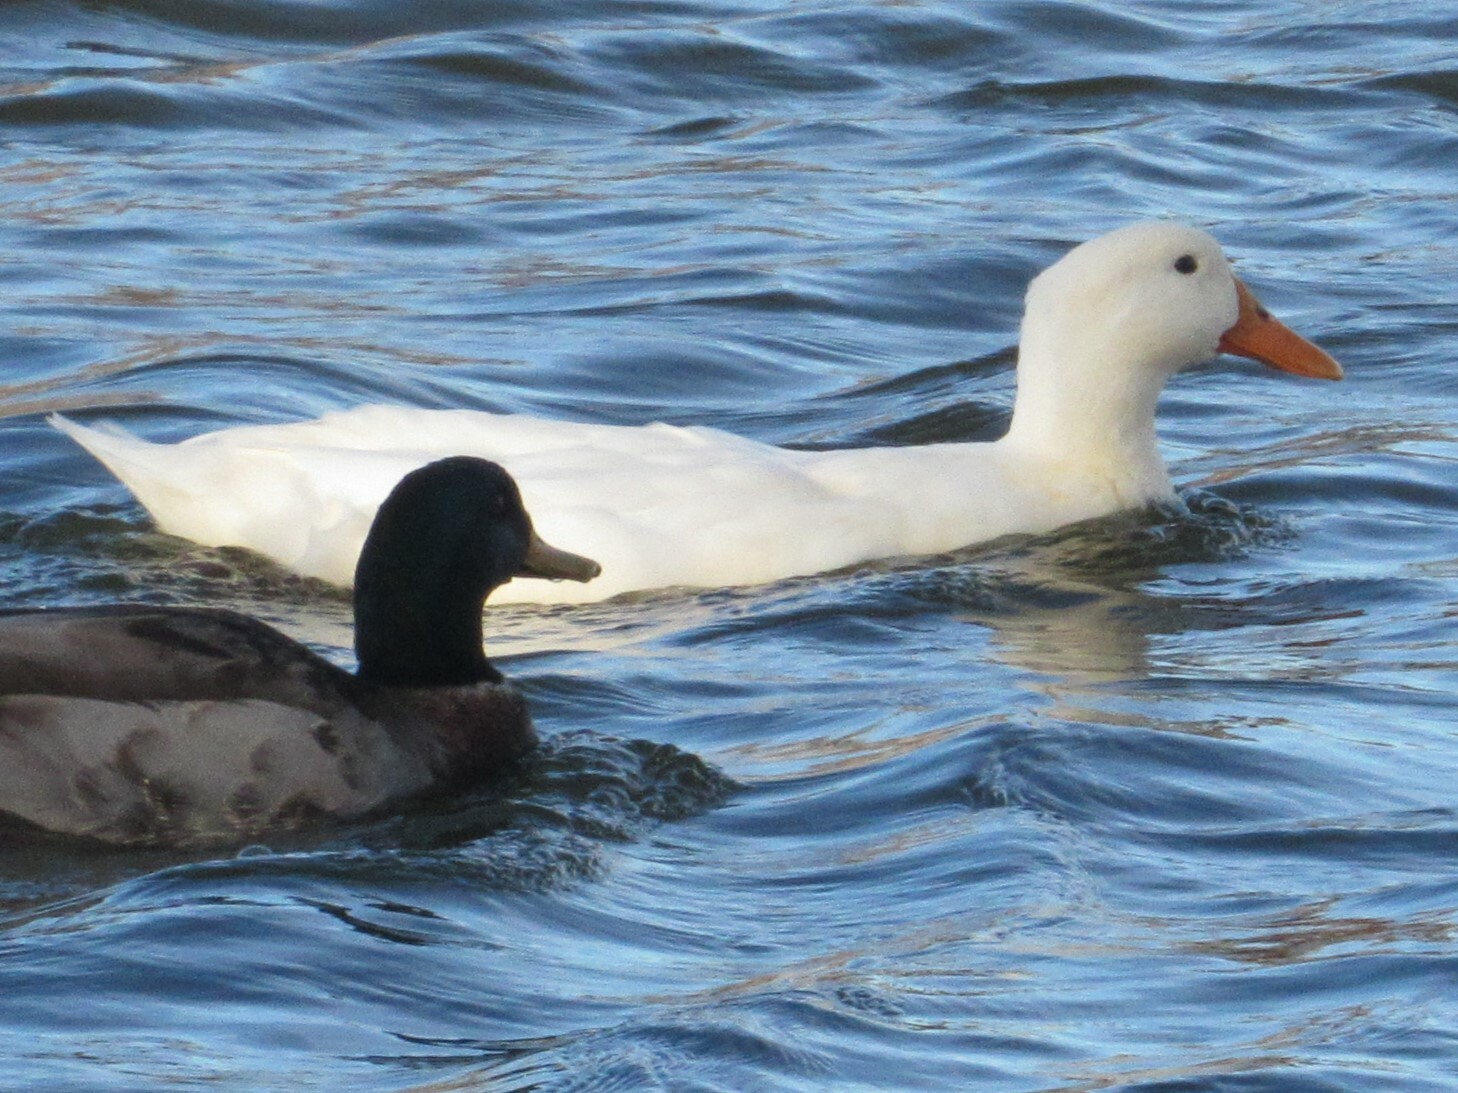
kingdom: Animalia
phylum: Chordata
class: Aves
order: Anseriformes
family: Anatidae
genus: Anas
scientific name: Anas platyrhynchos
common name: Mallard
